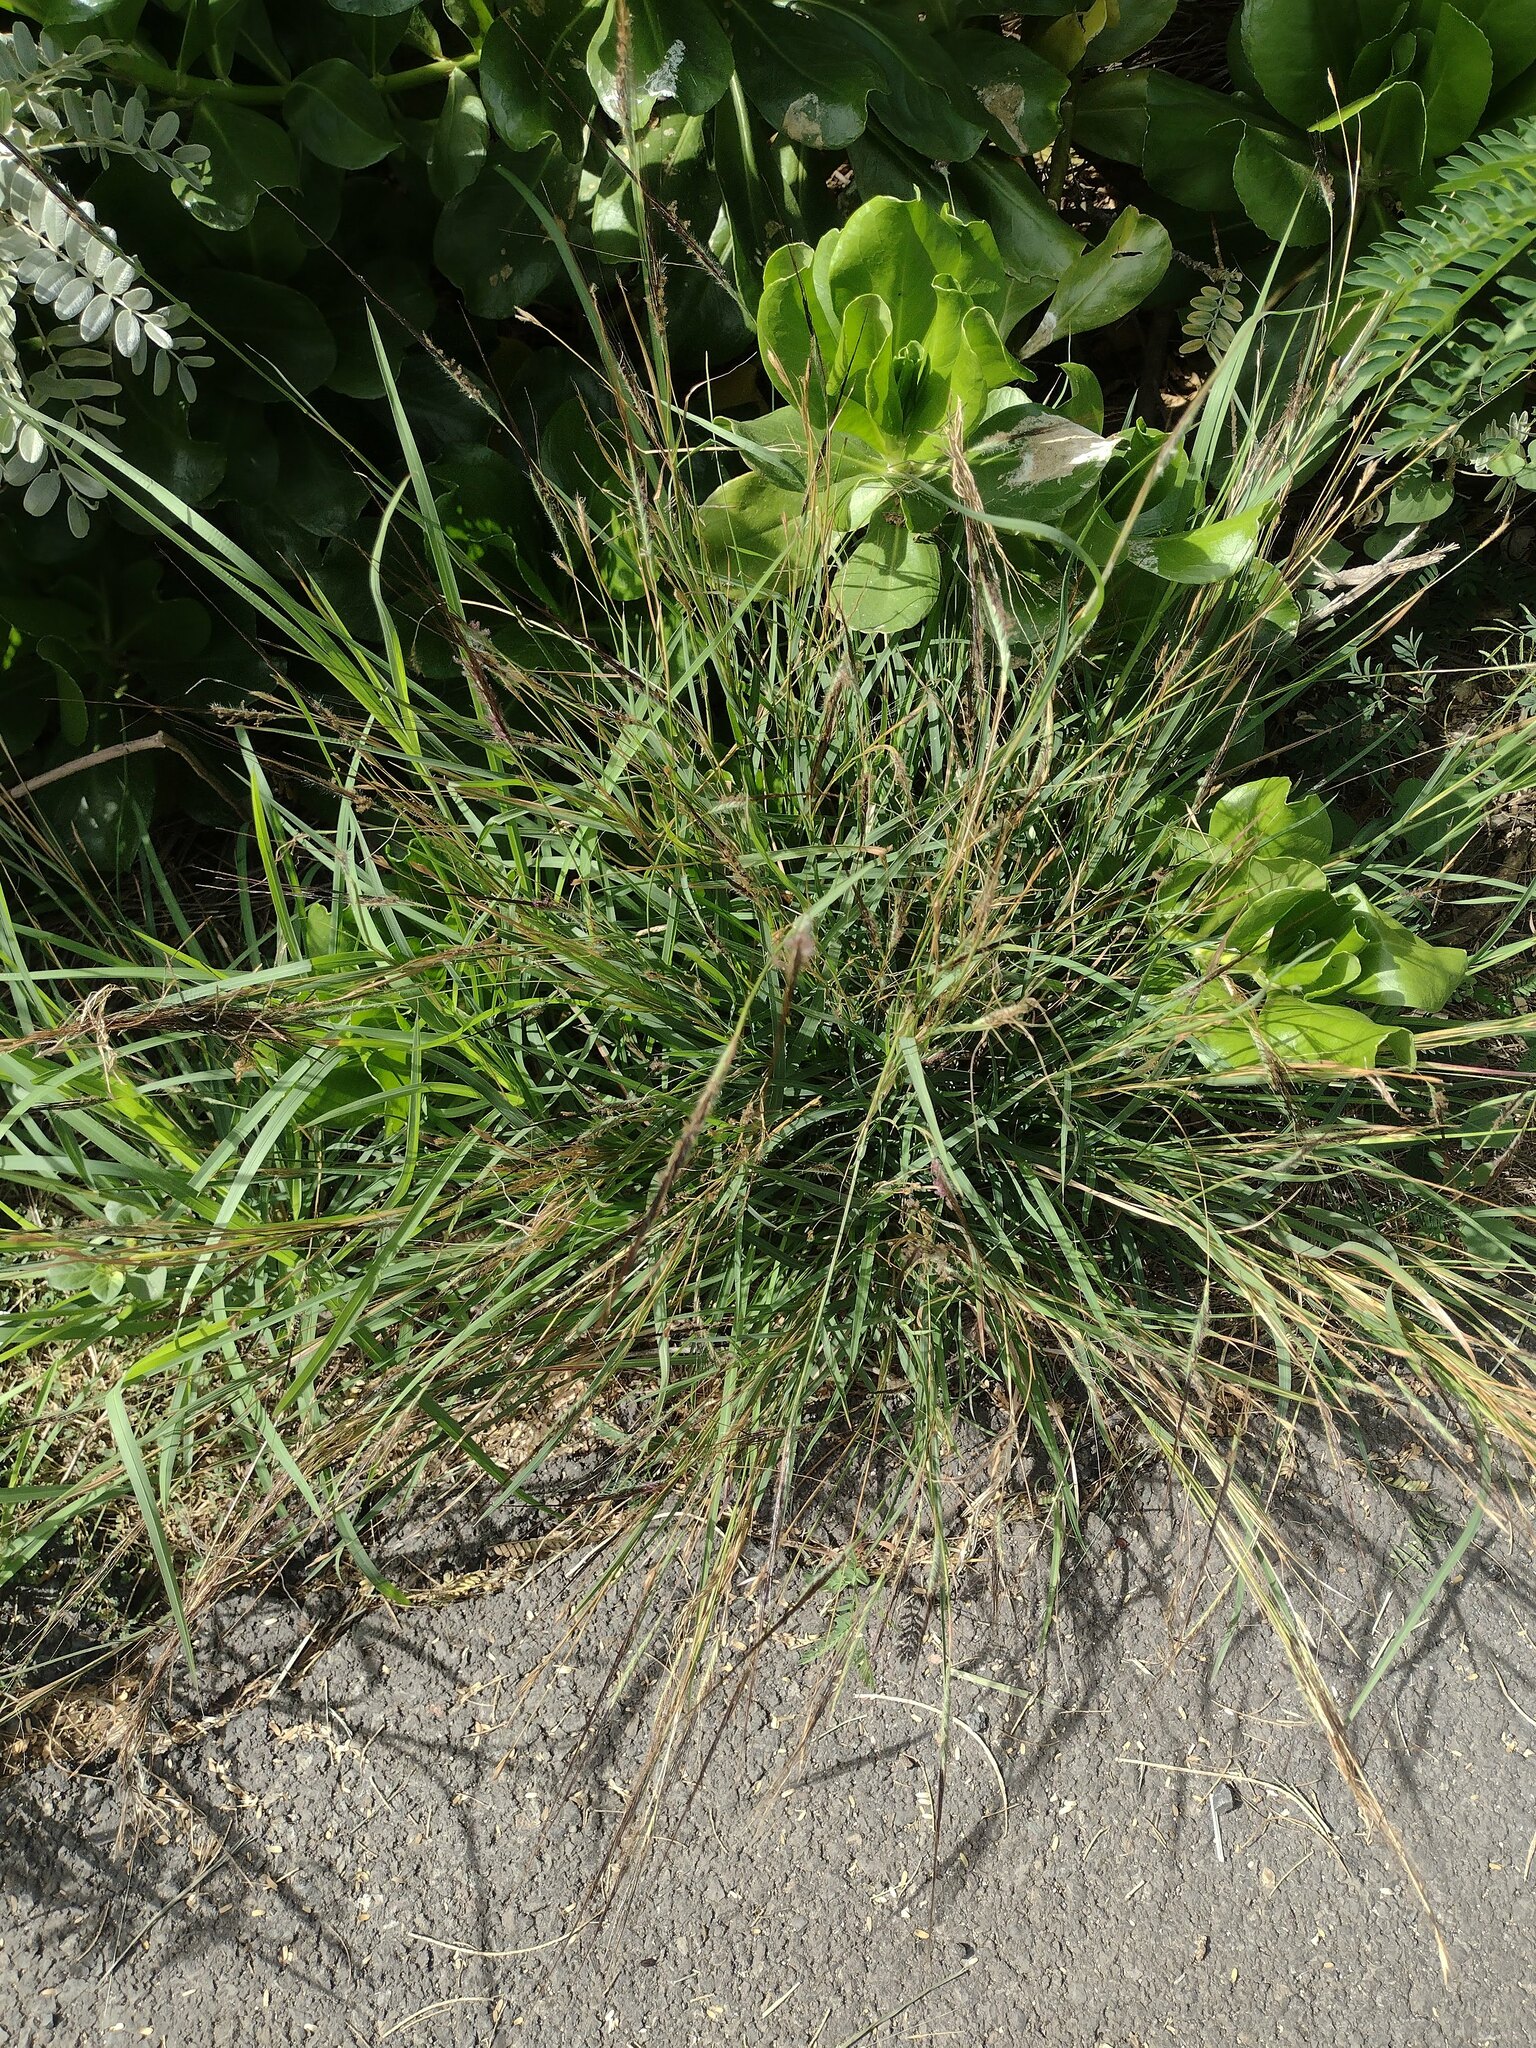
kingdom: Plantae
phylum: Tracheophyta
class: Liliopsida
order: Poales
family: Poaceae
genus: Heteropogon
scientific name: Heteropogon contortus
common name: Tanglehead
